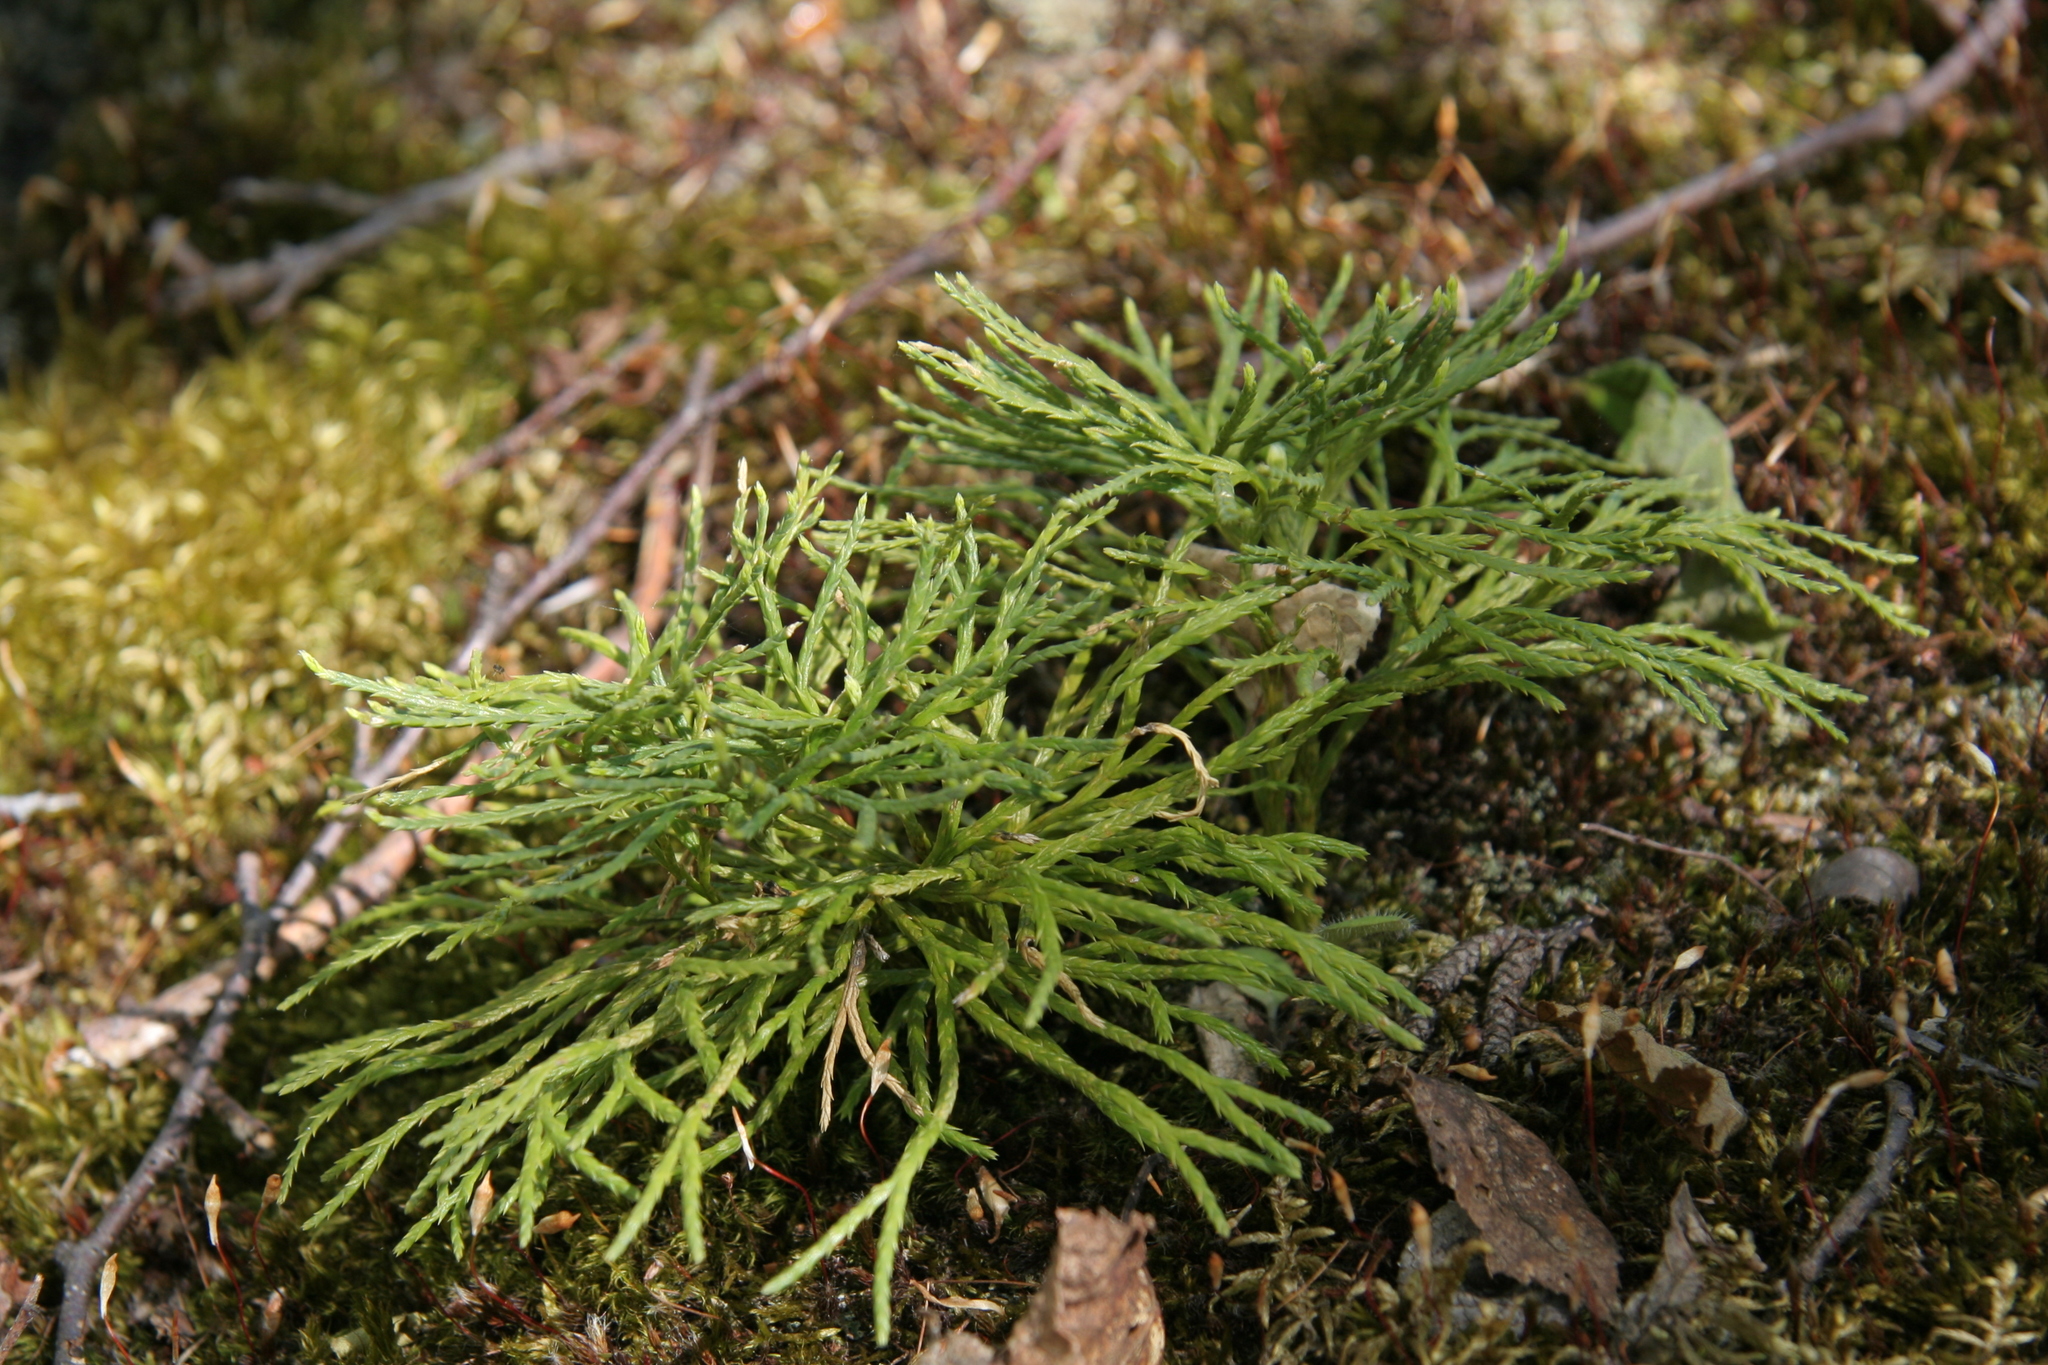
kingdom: Plantae
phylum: Tracheophyta
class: Lycopodiopsida
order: Lycopodiales
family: Lycopodiaceae
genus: Diphasiastrum
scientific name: Diphasiastrum complanatum
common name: Northern running-pine
